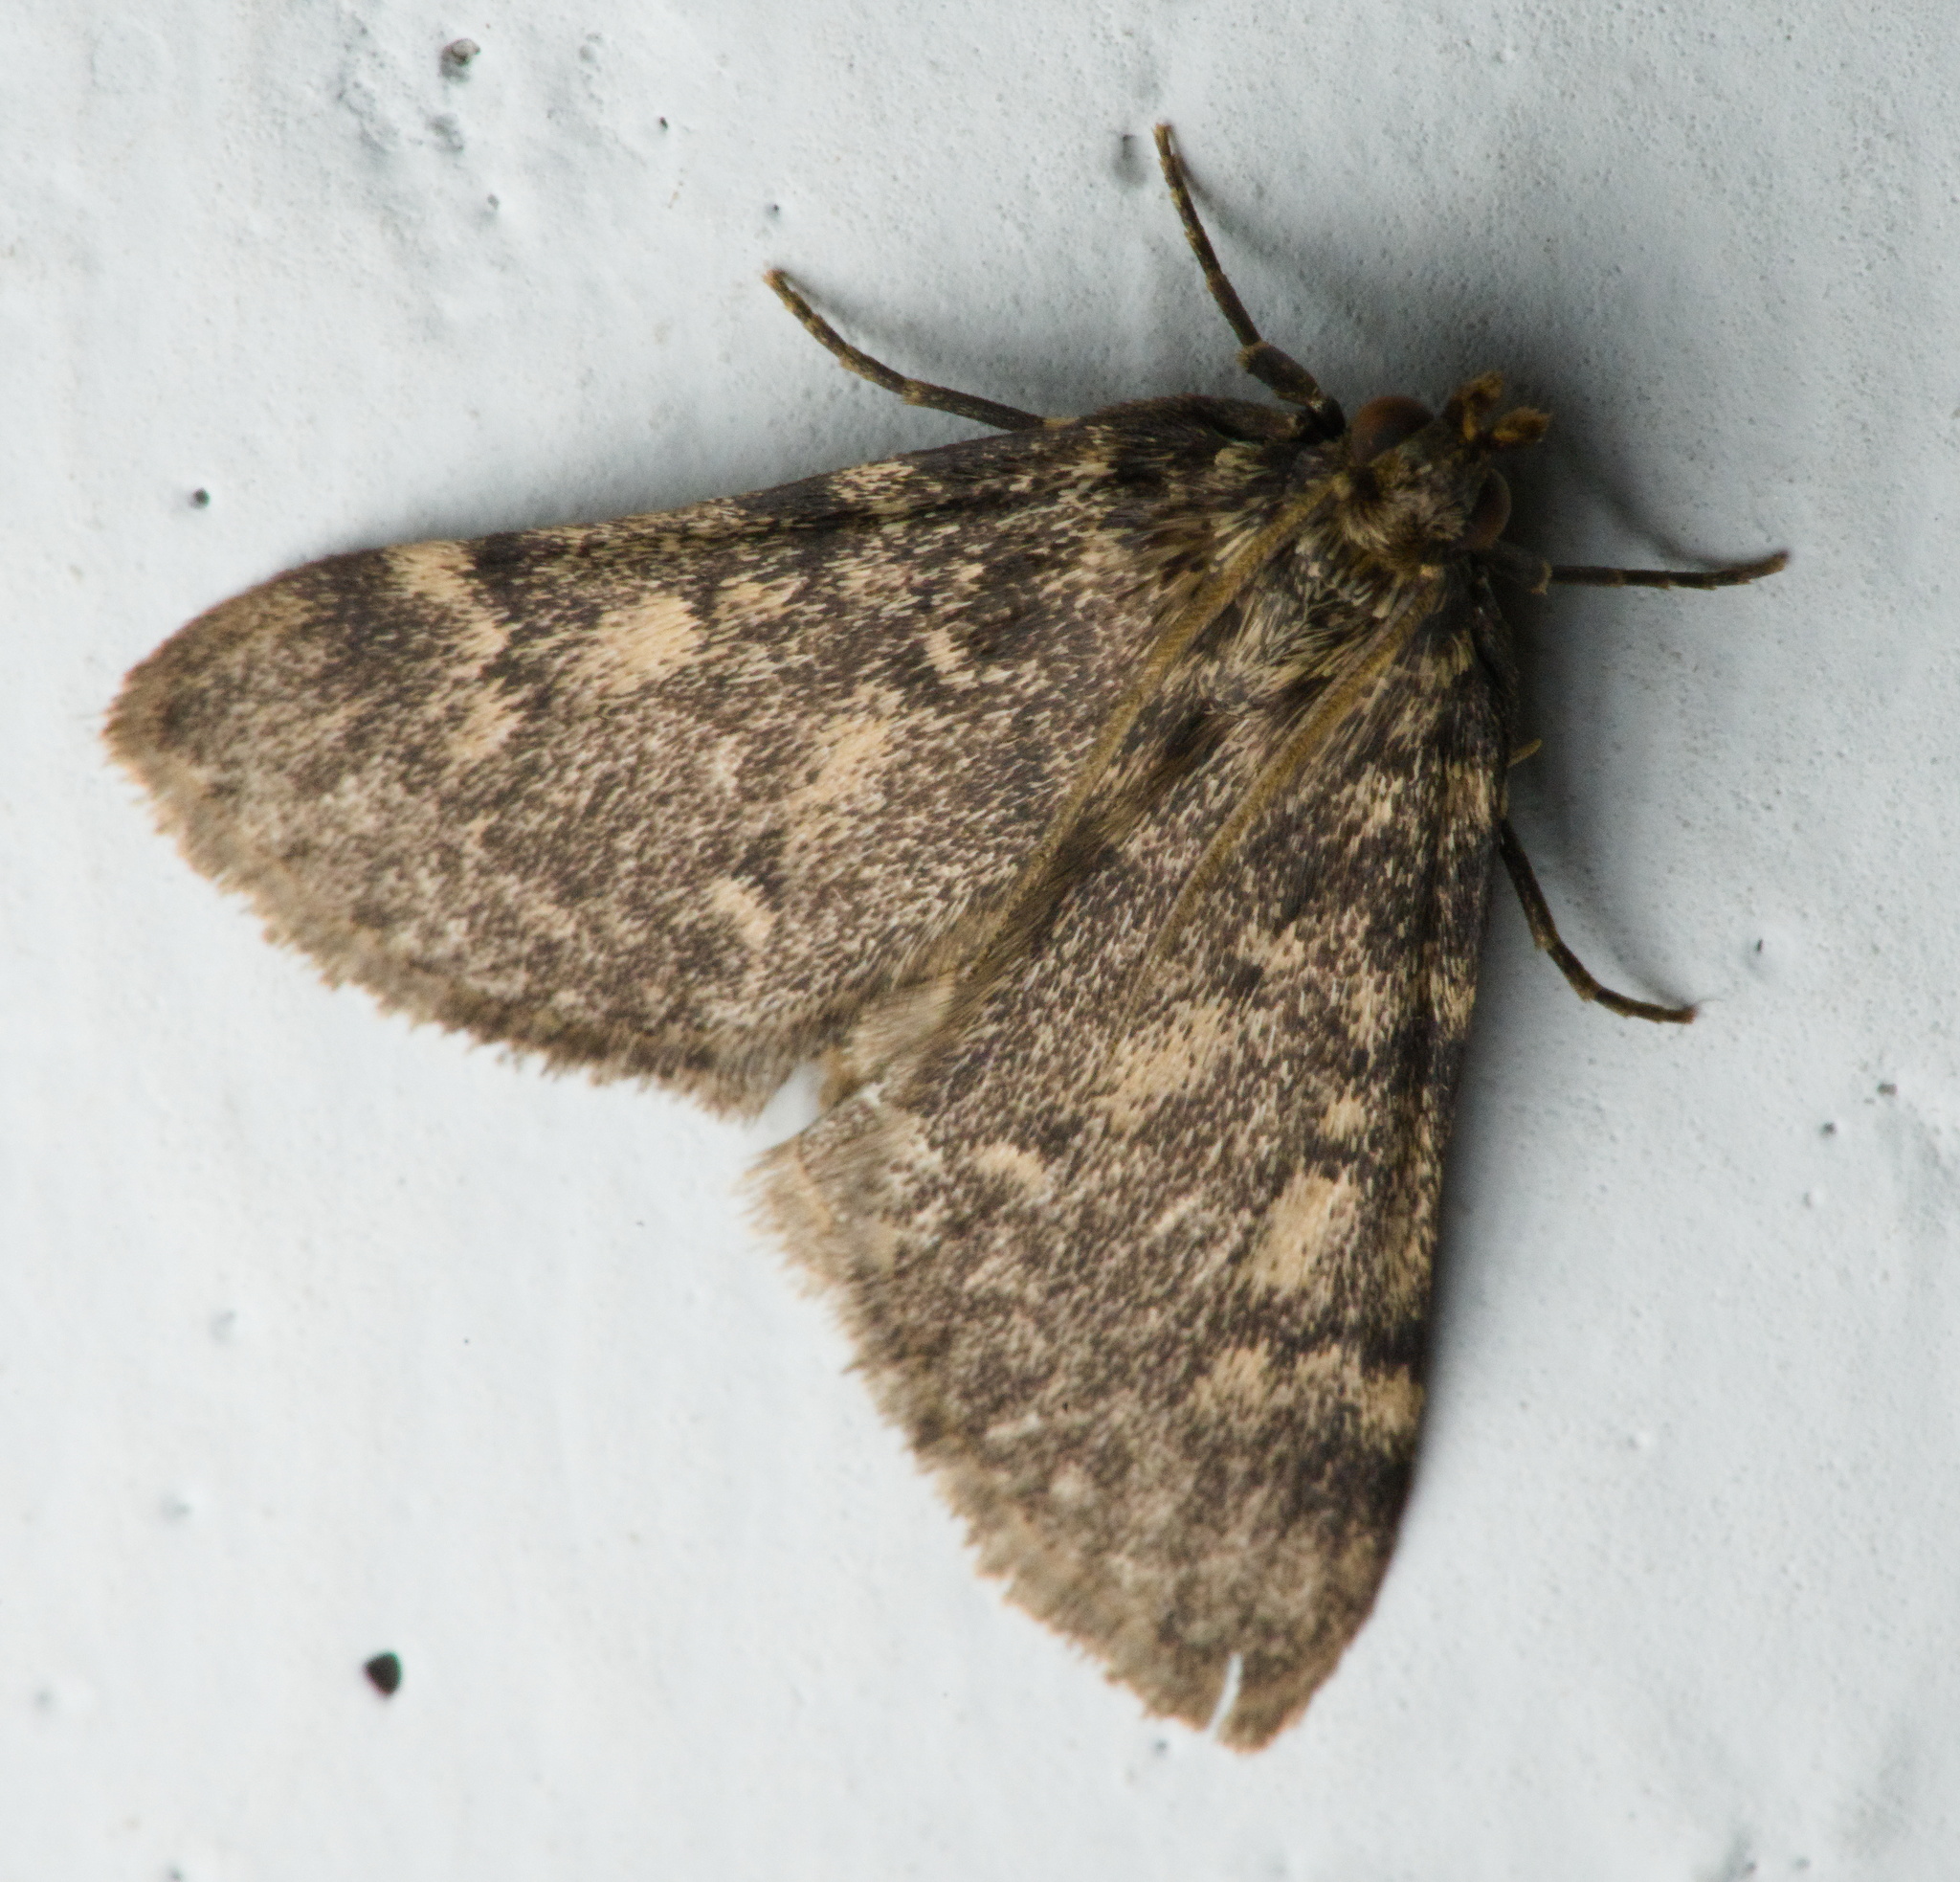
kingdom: Animalia
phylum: Arthropoda
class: Insecta
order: Lepidoptera
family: Pyralidae
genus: Aglossa
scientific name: Aglossa pinguinalis
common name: Large tabby
